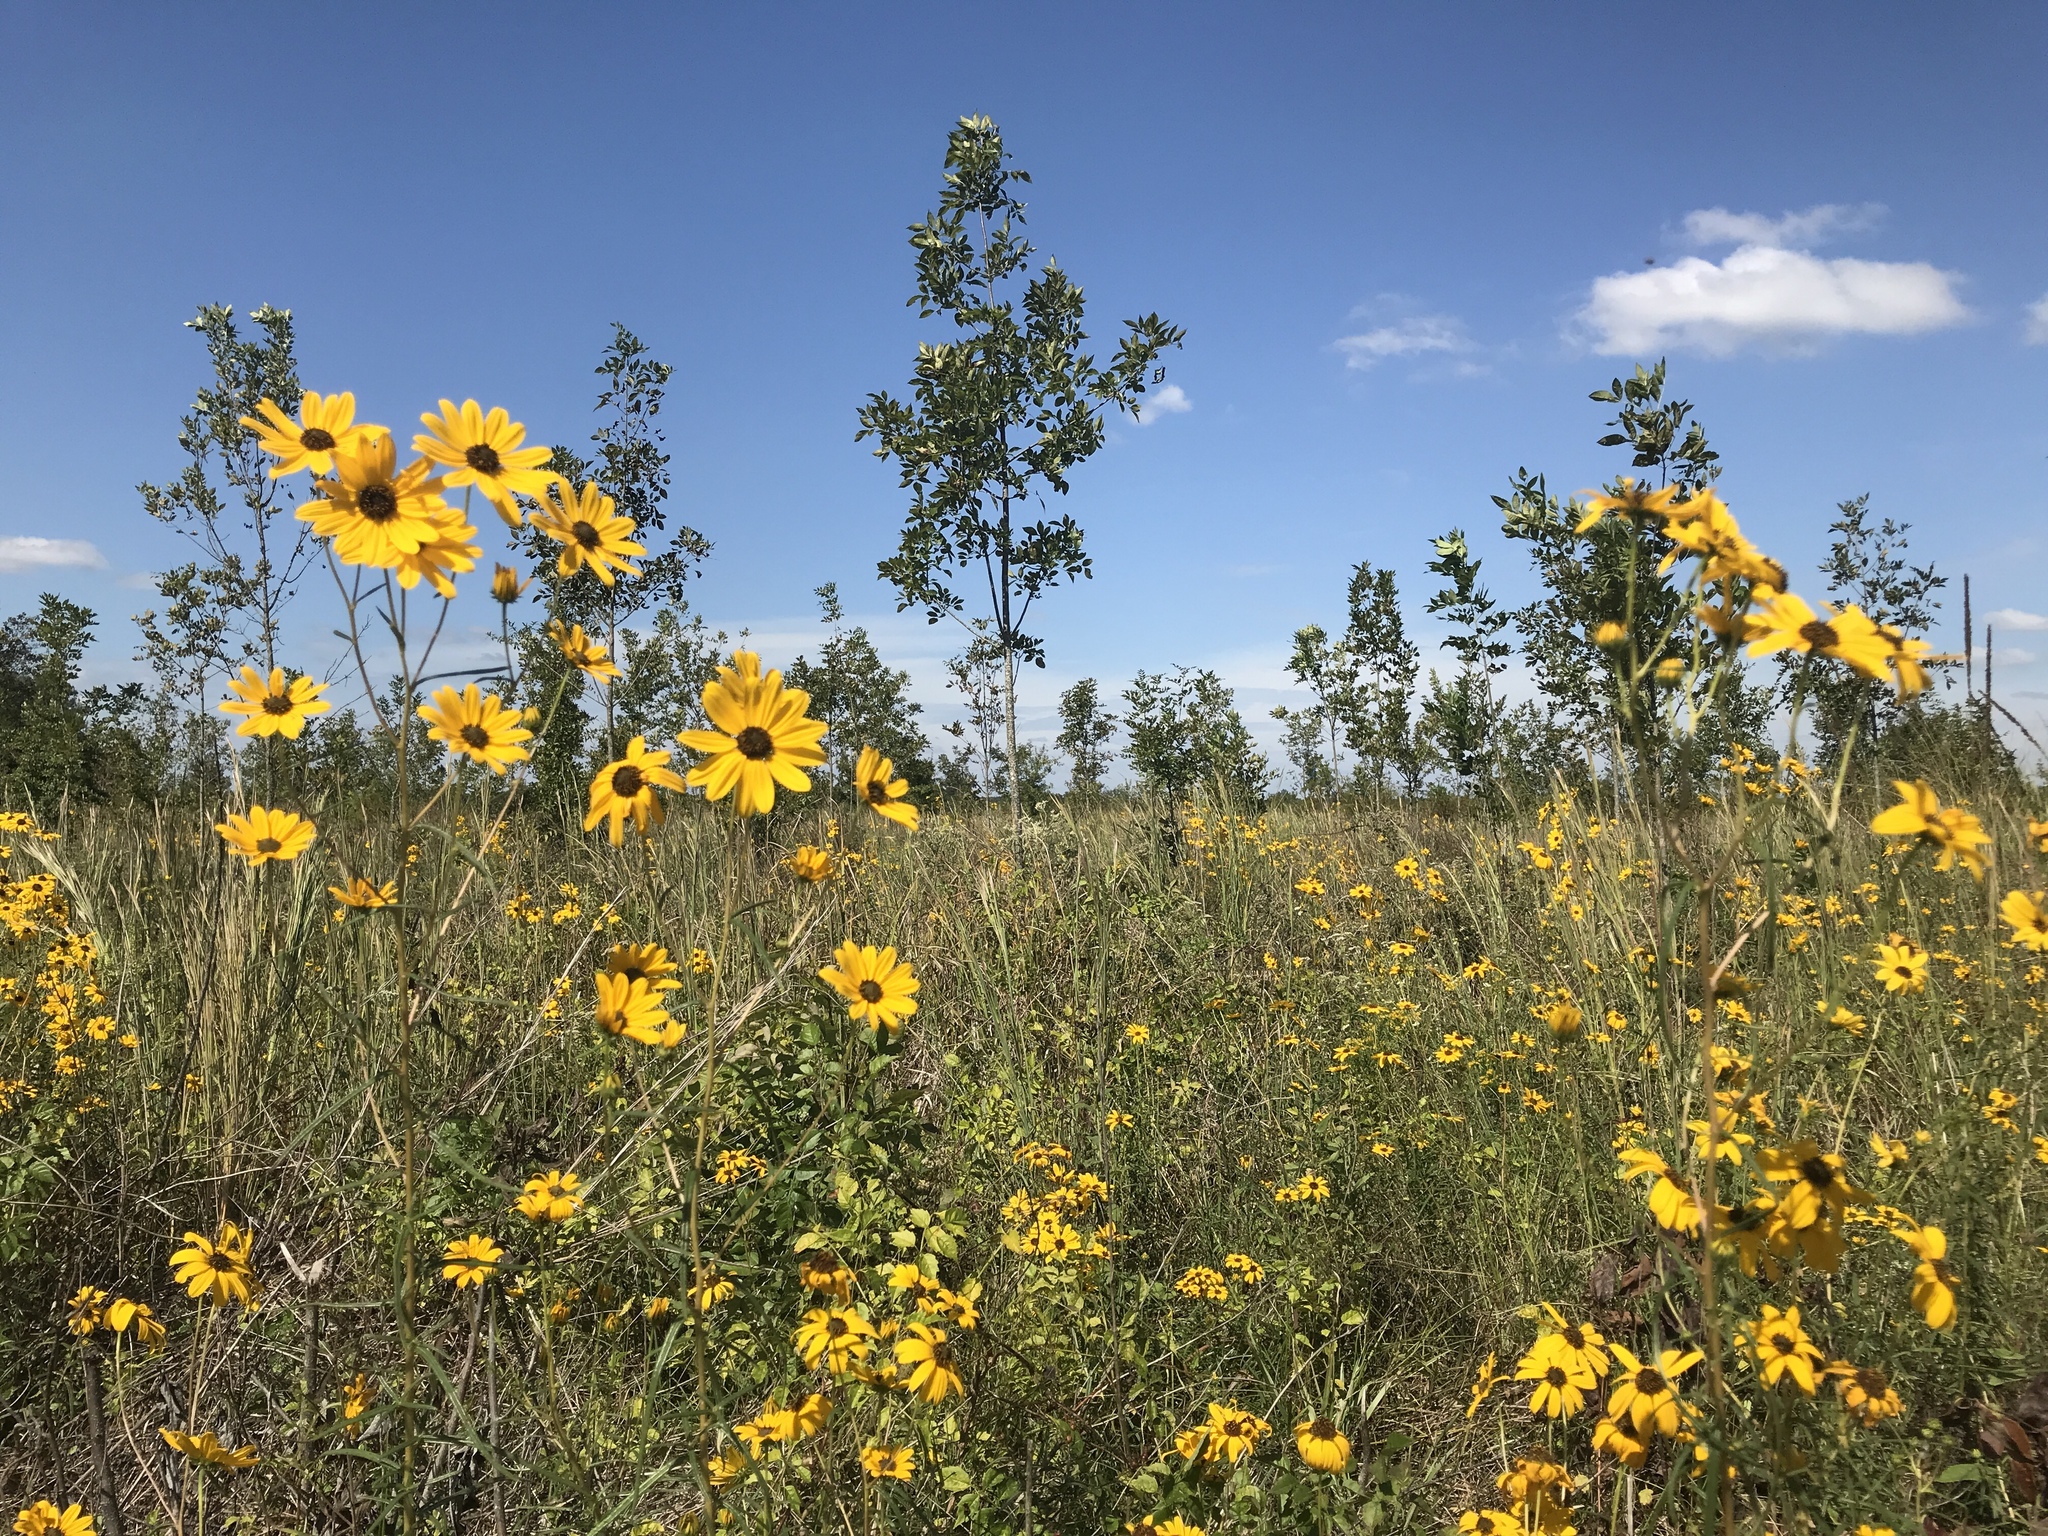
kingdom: Plantae
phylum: Tracheophyta
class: Magnoliopsida
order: Asterales
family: Asteraceae
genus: Rudbeckia
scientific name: Rudbeckia hirta
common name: Black-eyed-susan
